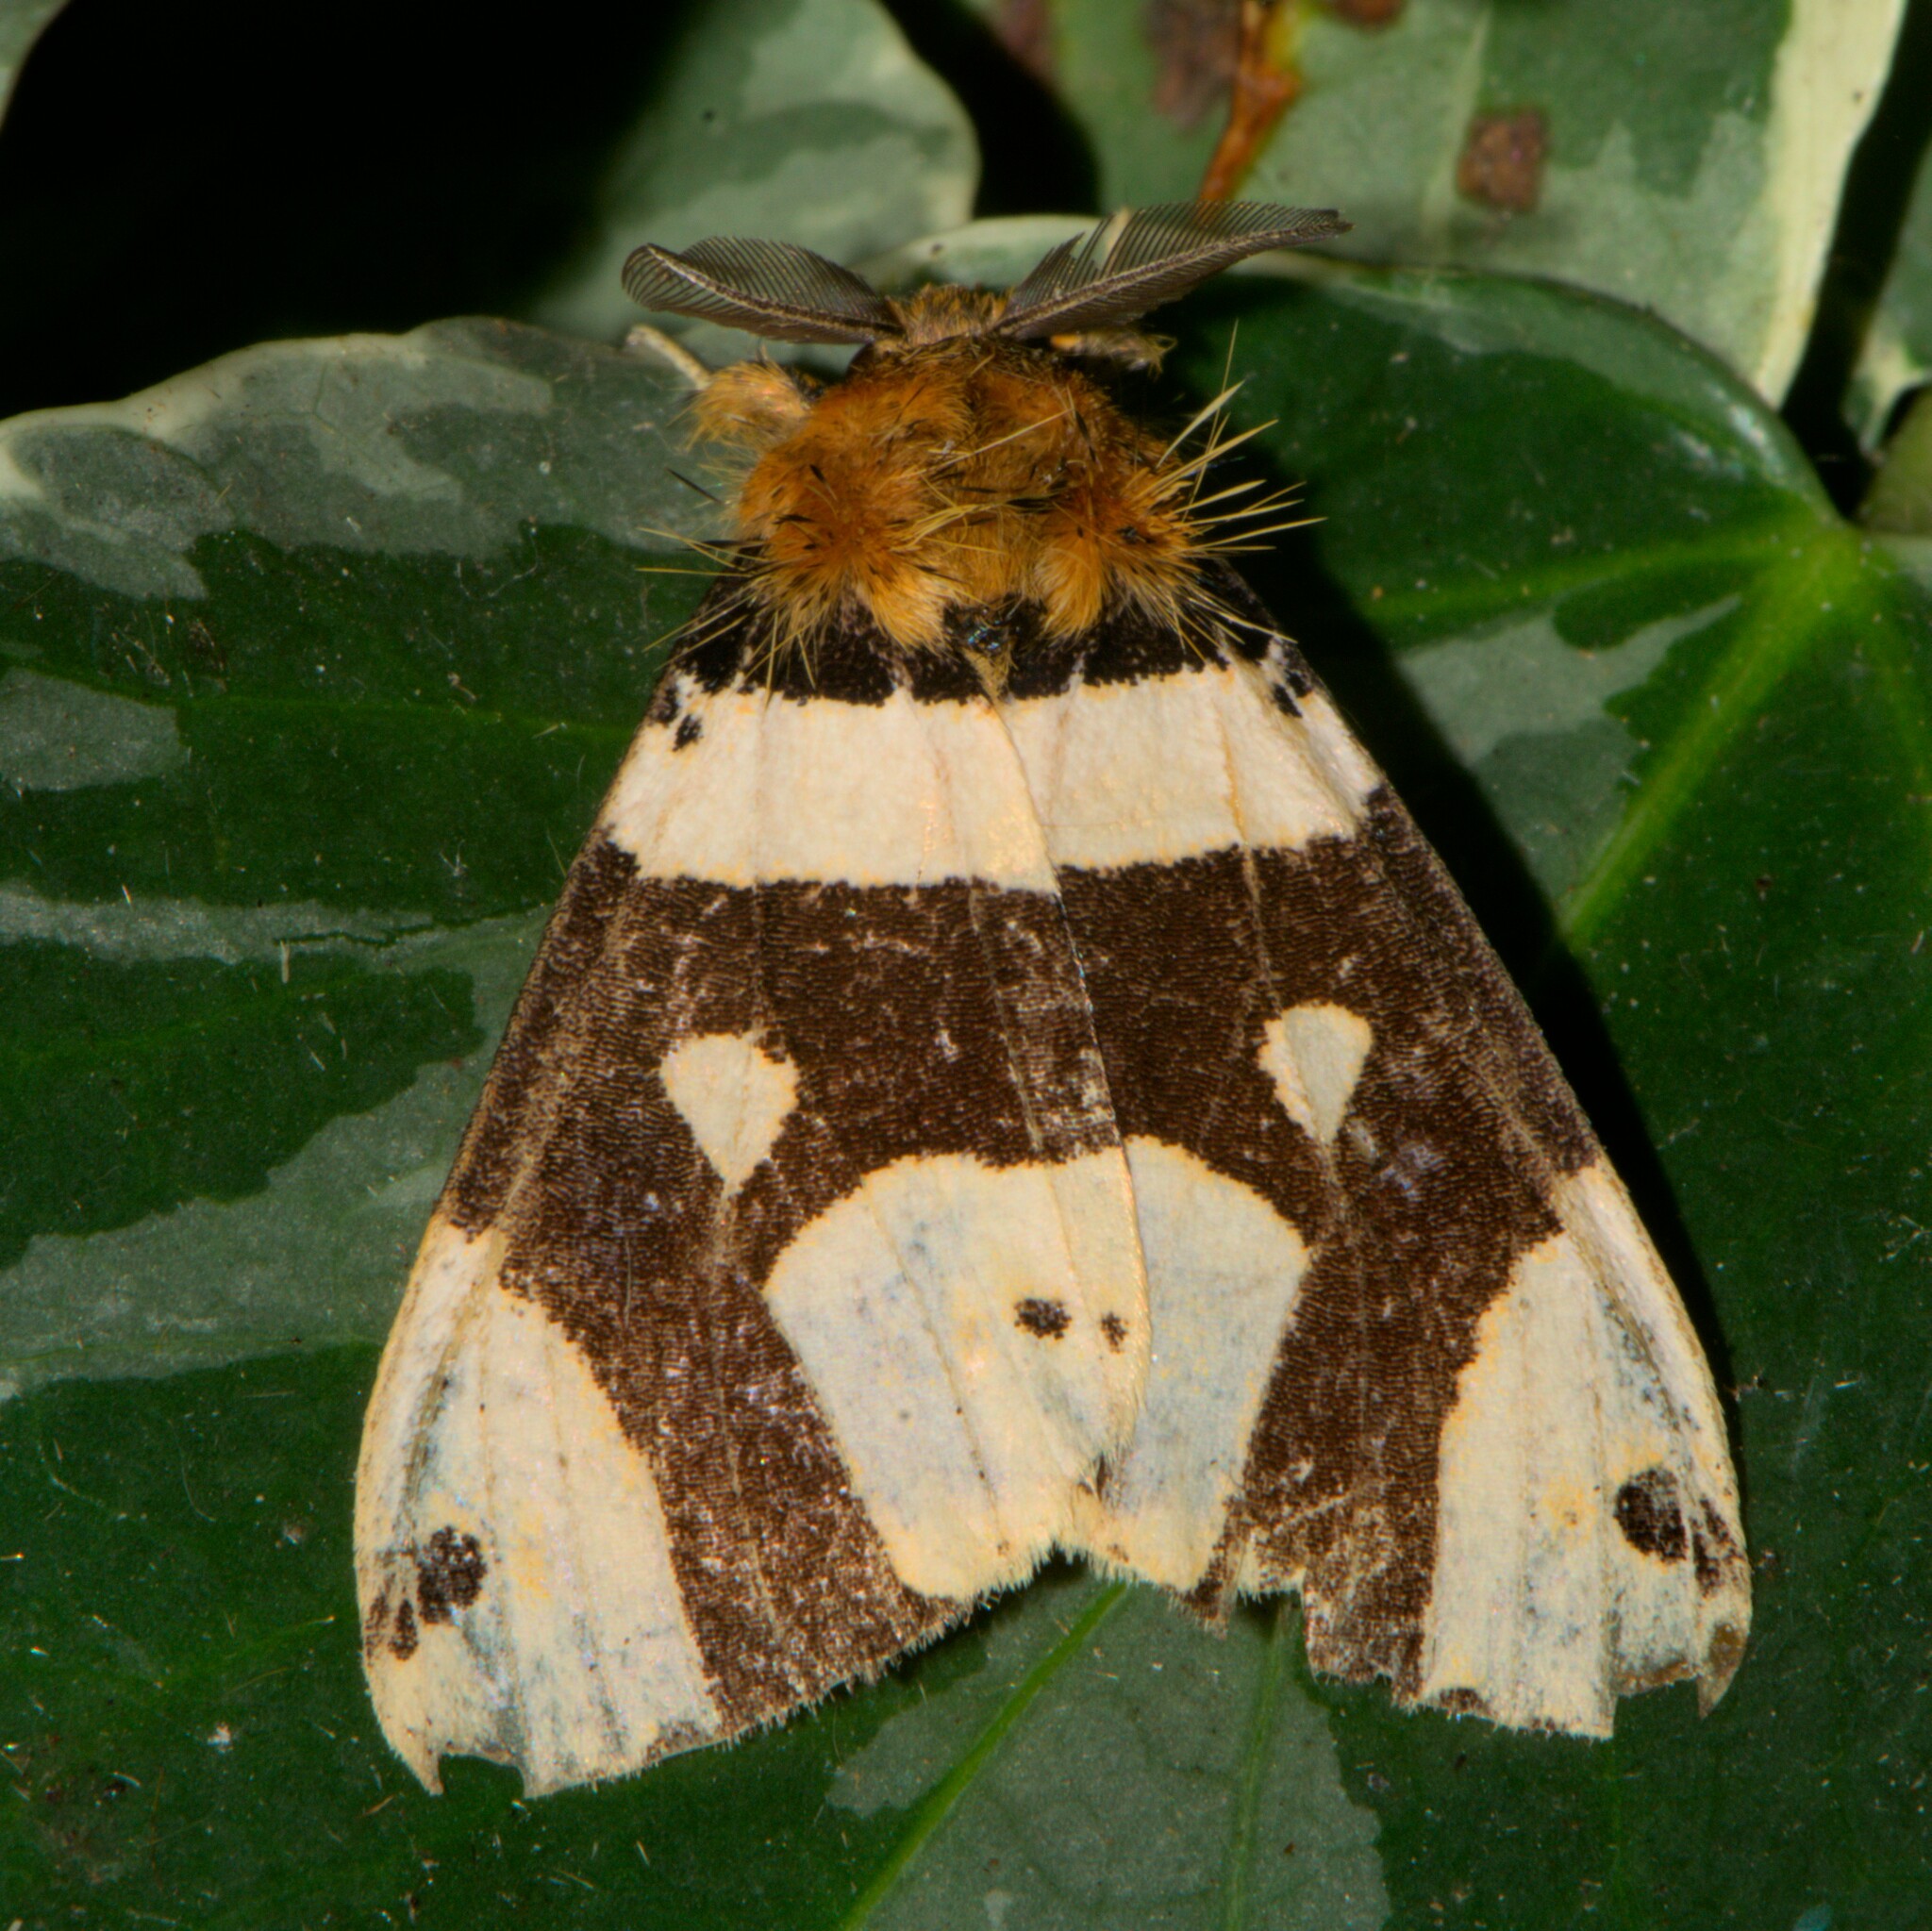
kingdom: Animalia
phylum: Arthropoda
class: Insecta
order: Lepidoptera
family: Erebidae
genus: Pida
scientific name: Pida
